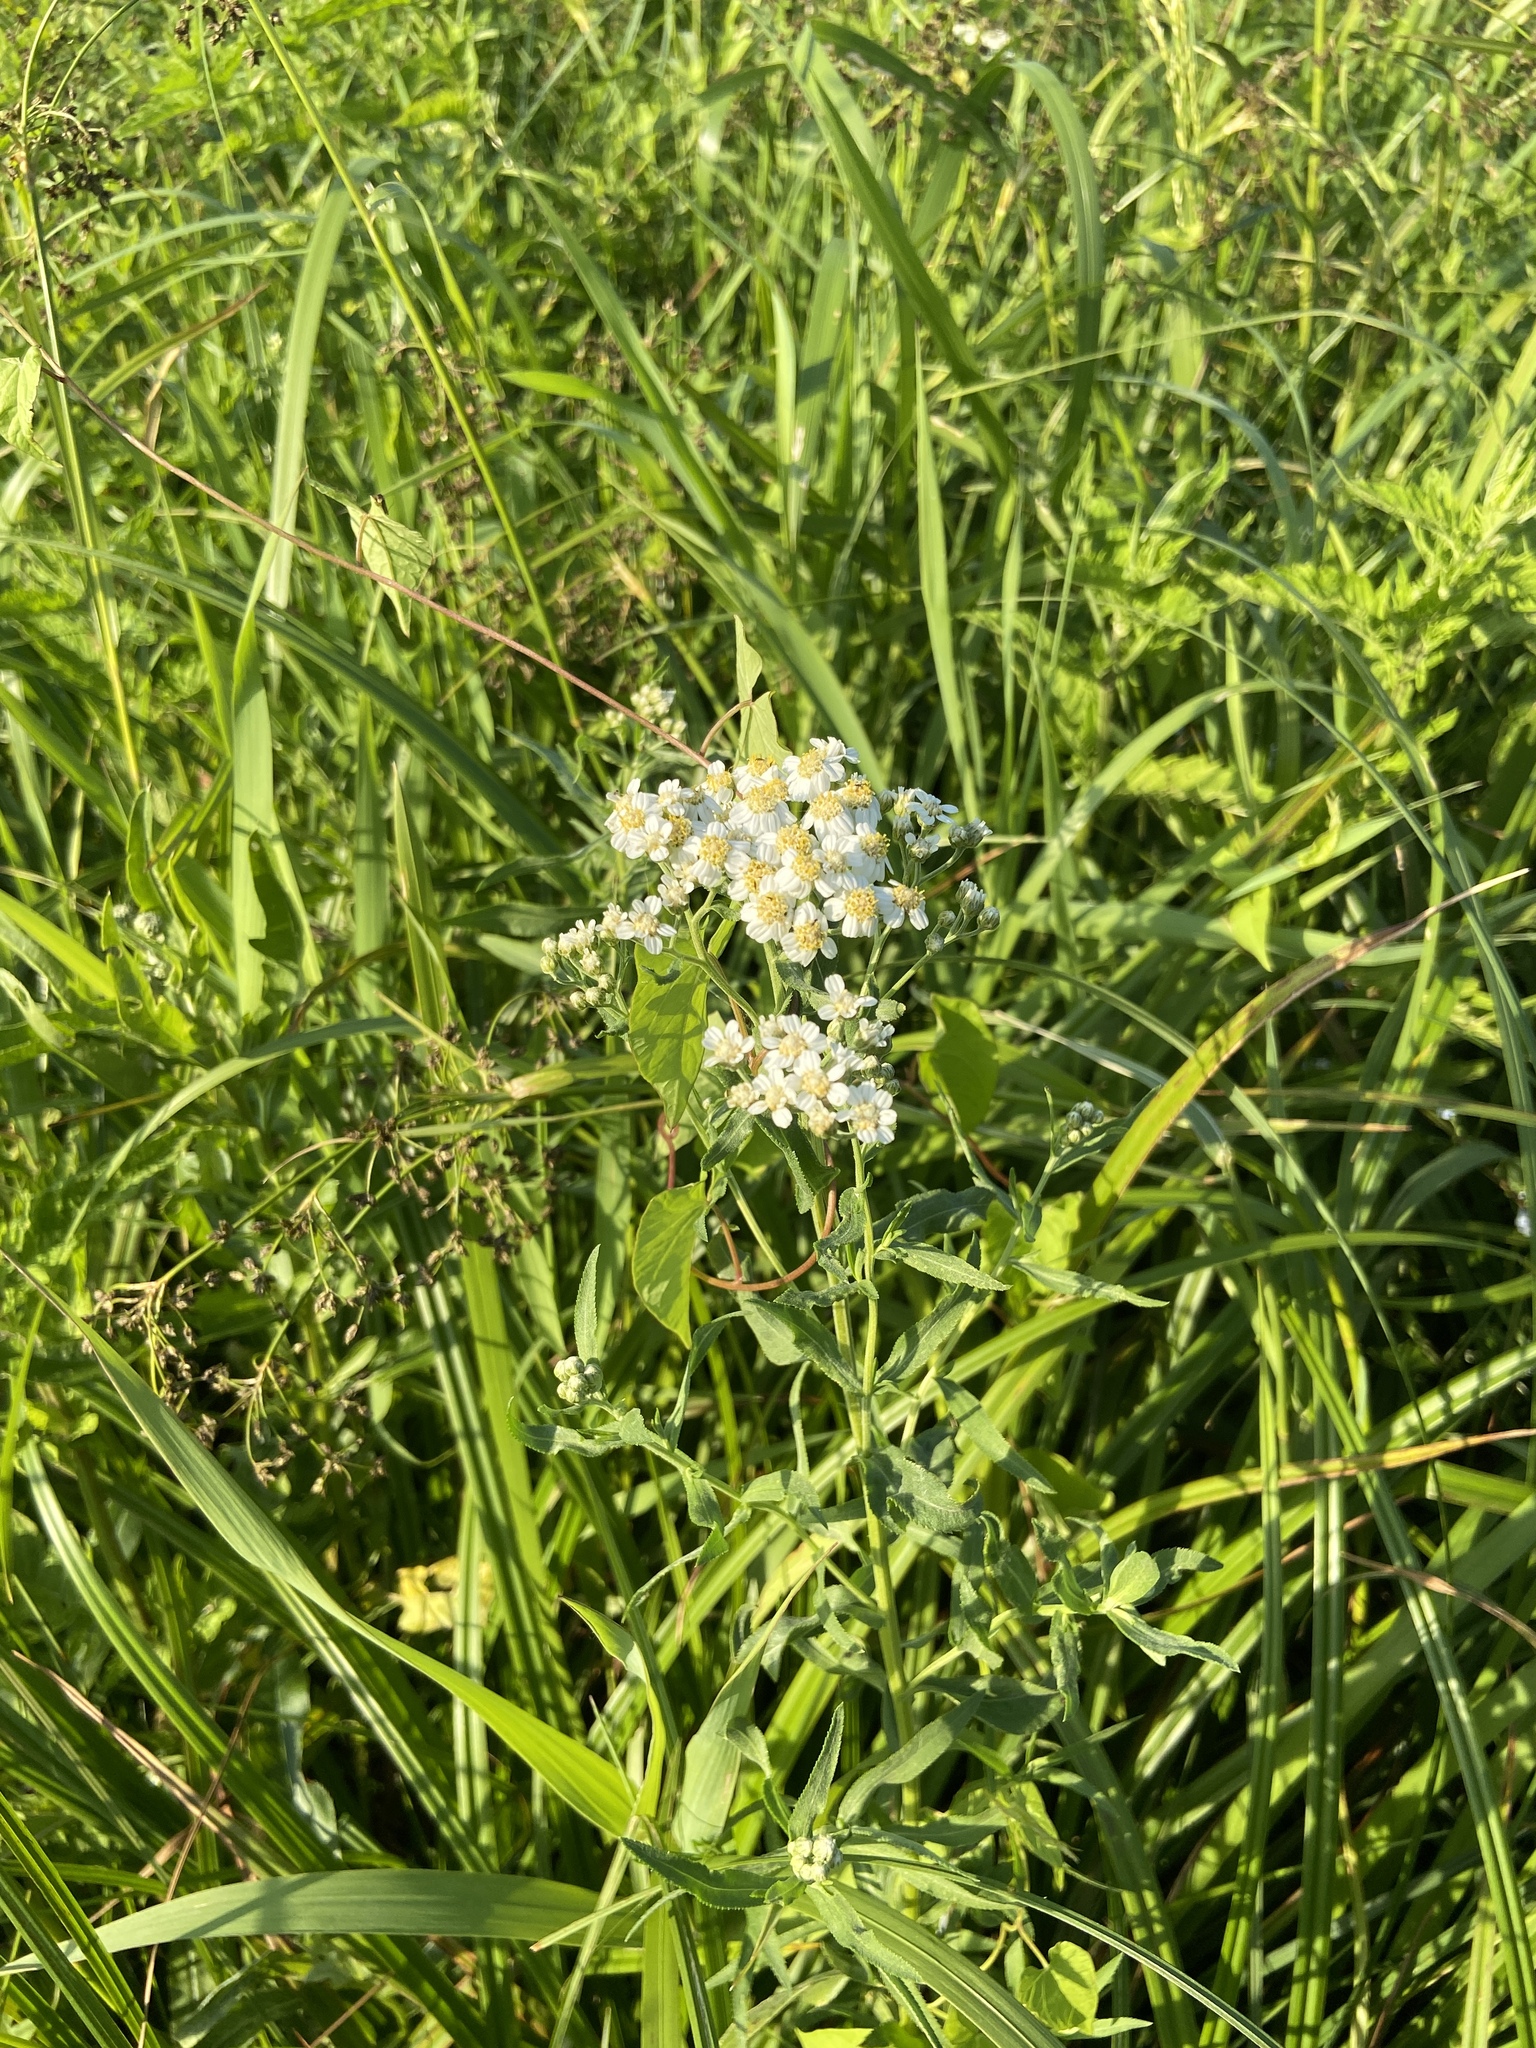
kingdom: Plantae
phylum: Tracheophyta
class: Magnoliopsida
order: Asterales
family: Asteraceae
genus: Achillea
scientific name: Achillea salicifolia
